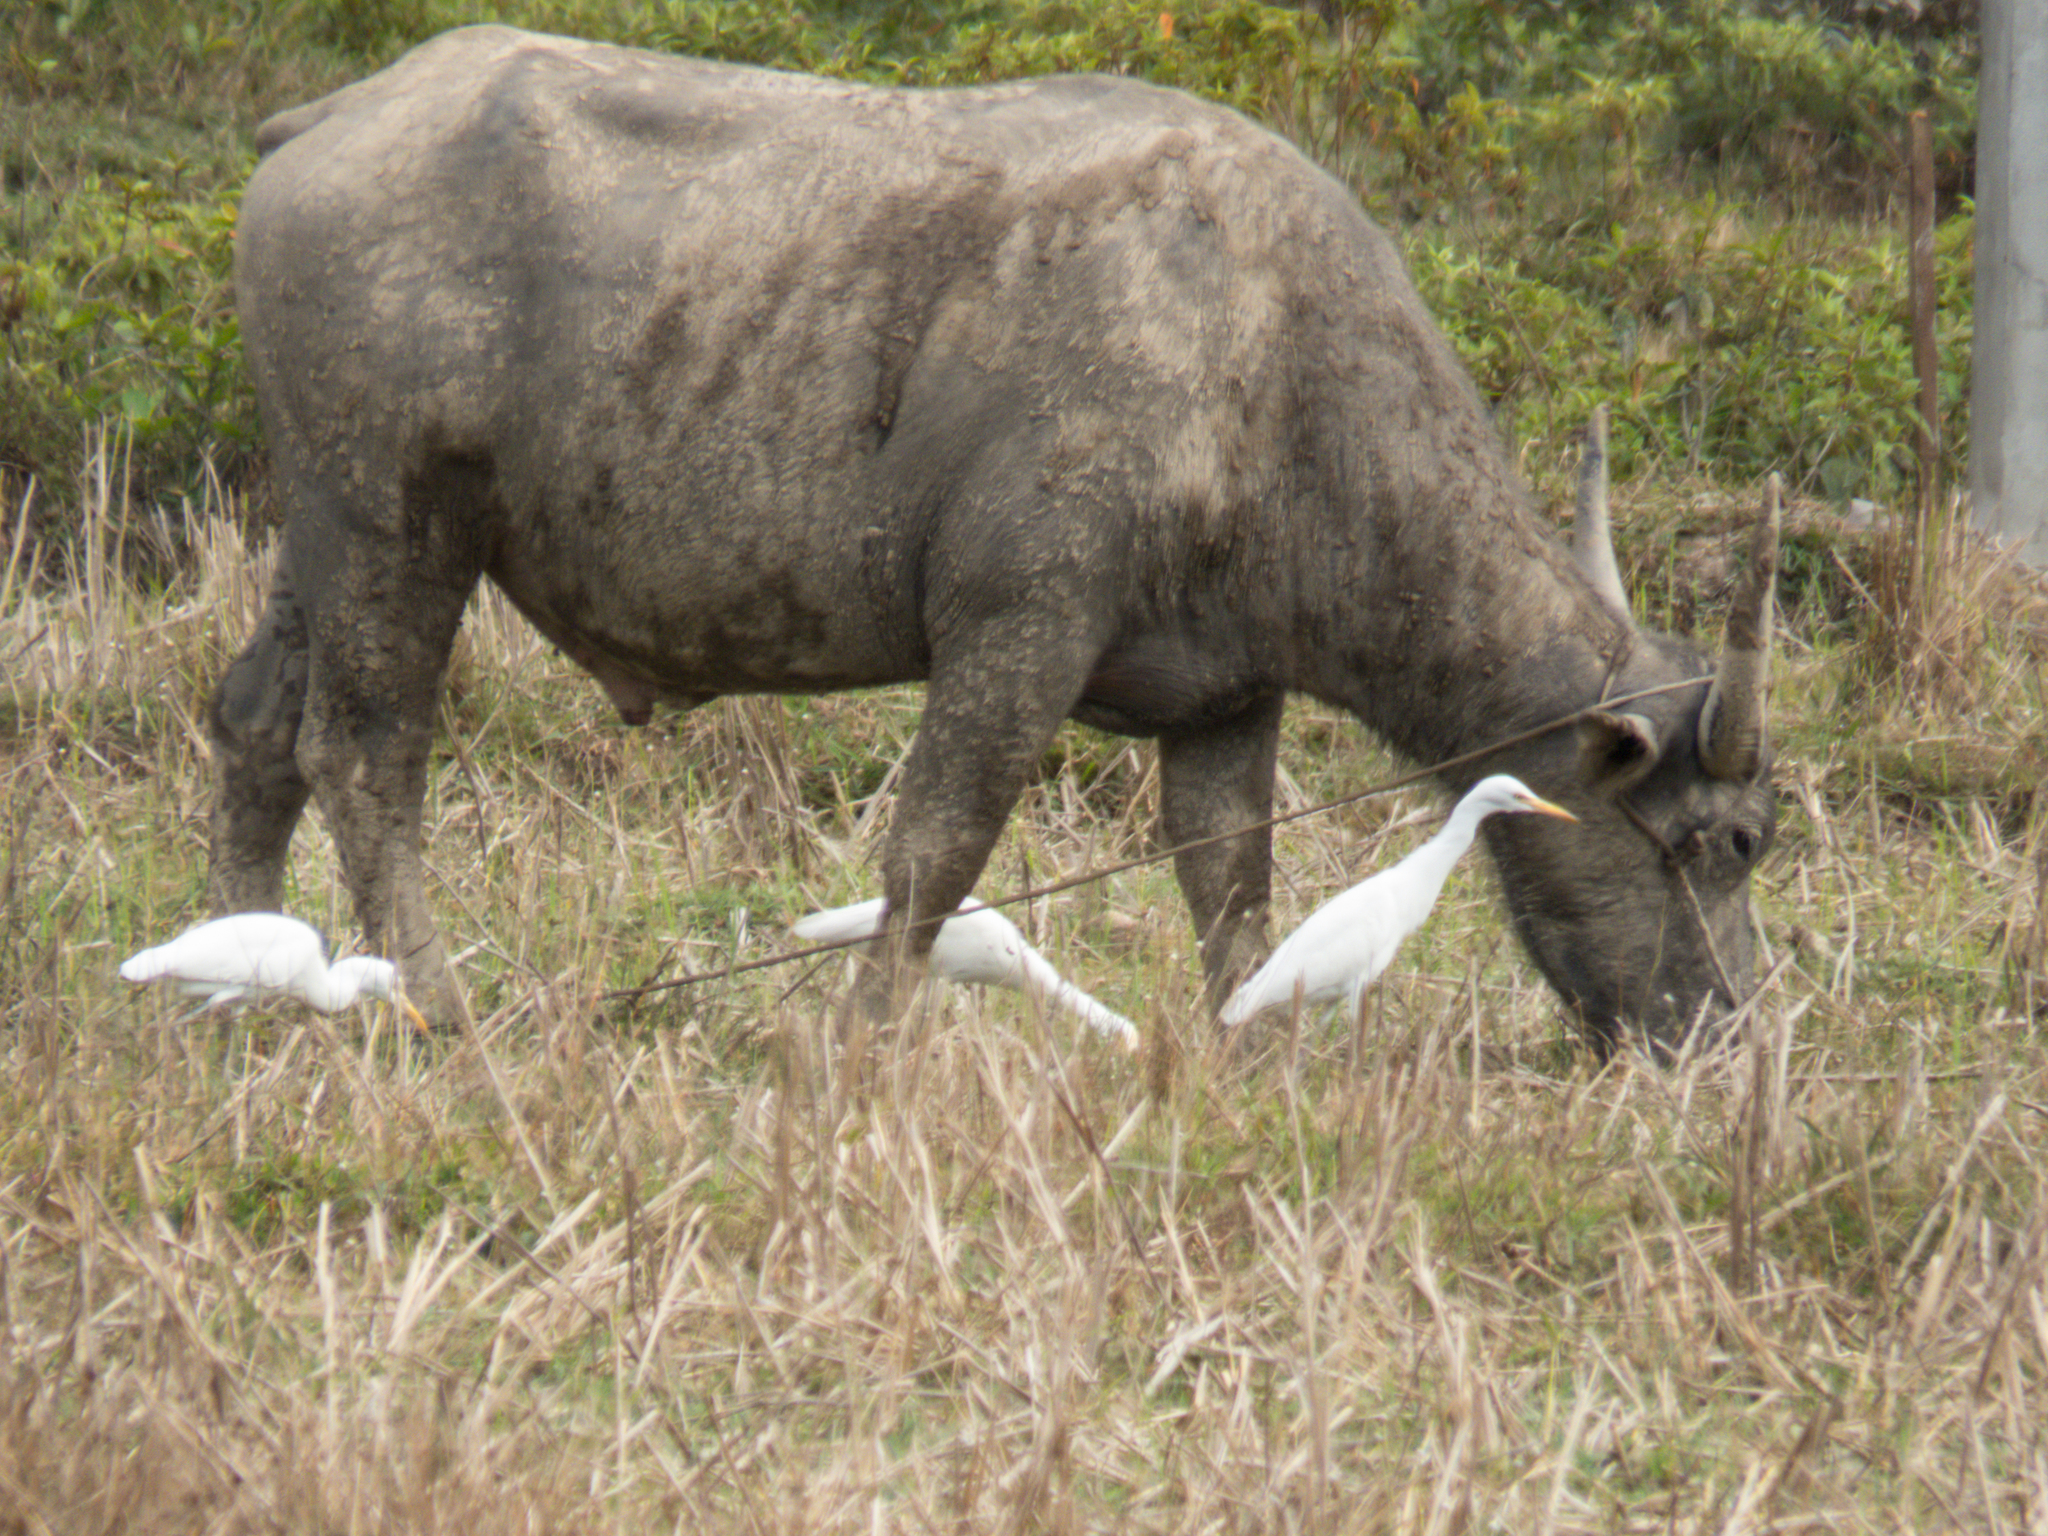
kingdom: Animalia
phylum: Chordata
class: Aves
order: Pelecaniformes
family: Ardeidae
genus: Bubulcus
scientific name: Bubulcus coromandus
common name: Eastern cattle egret
